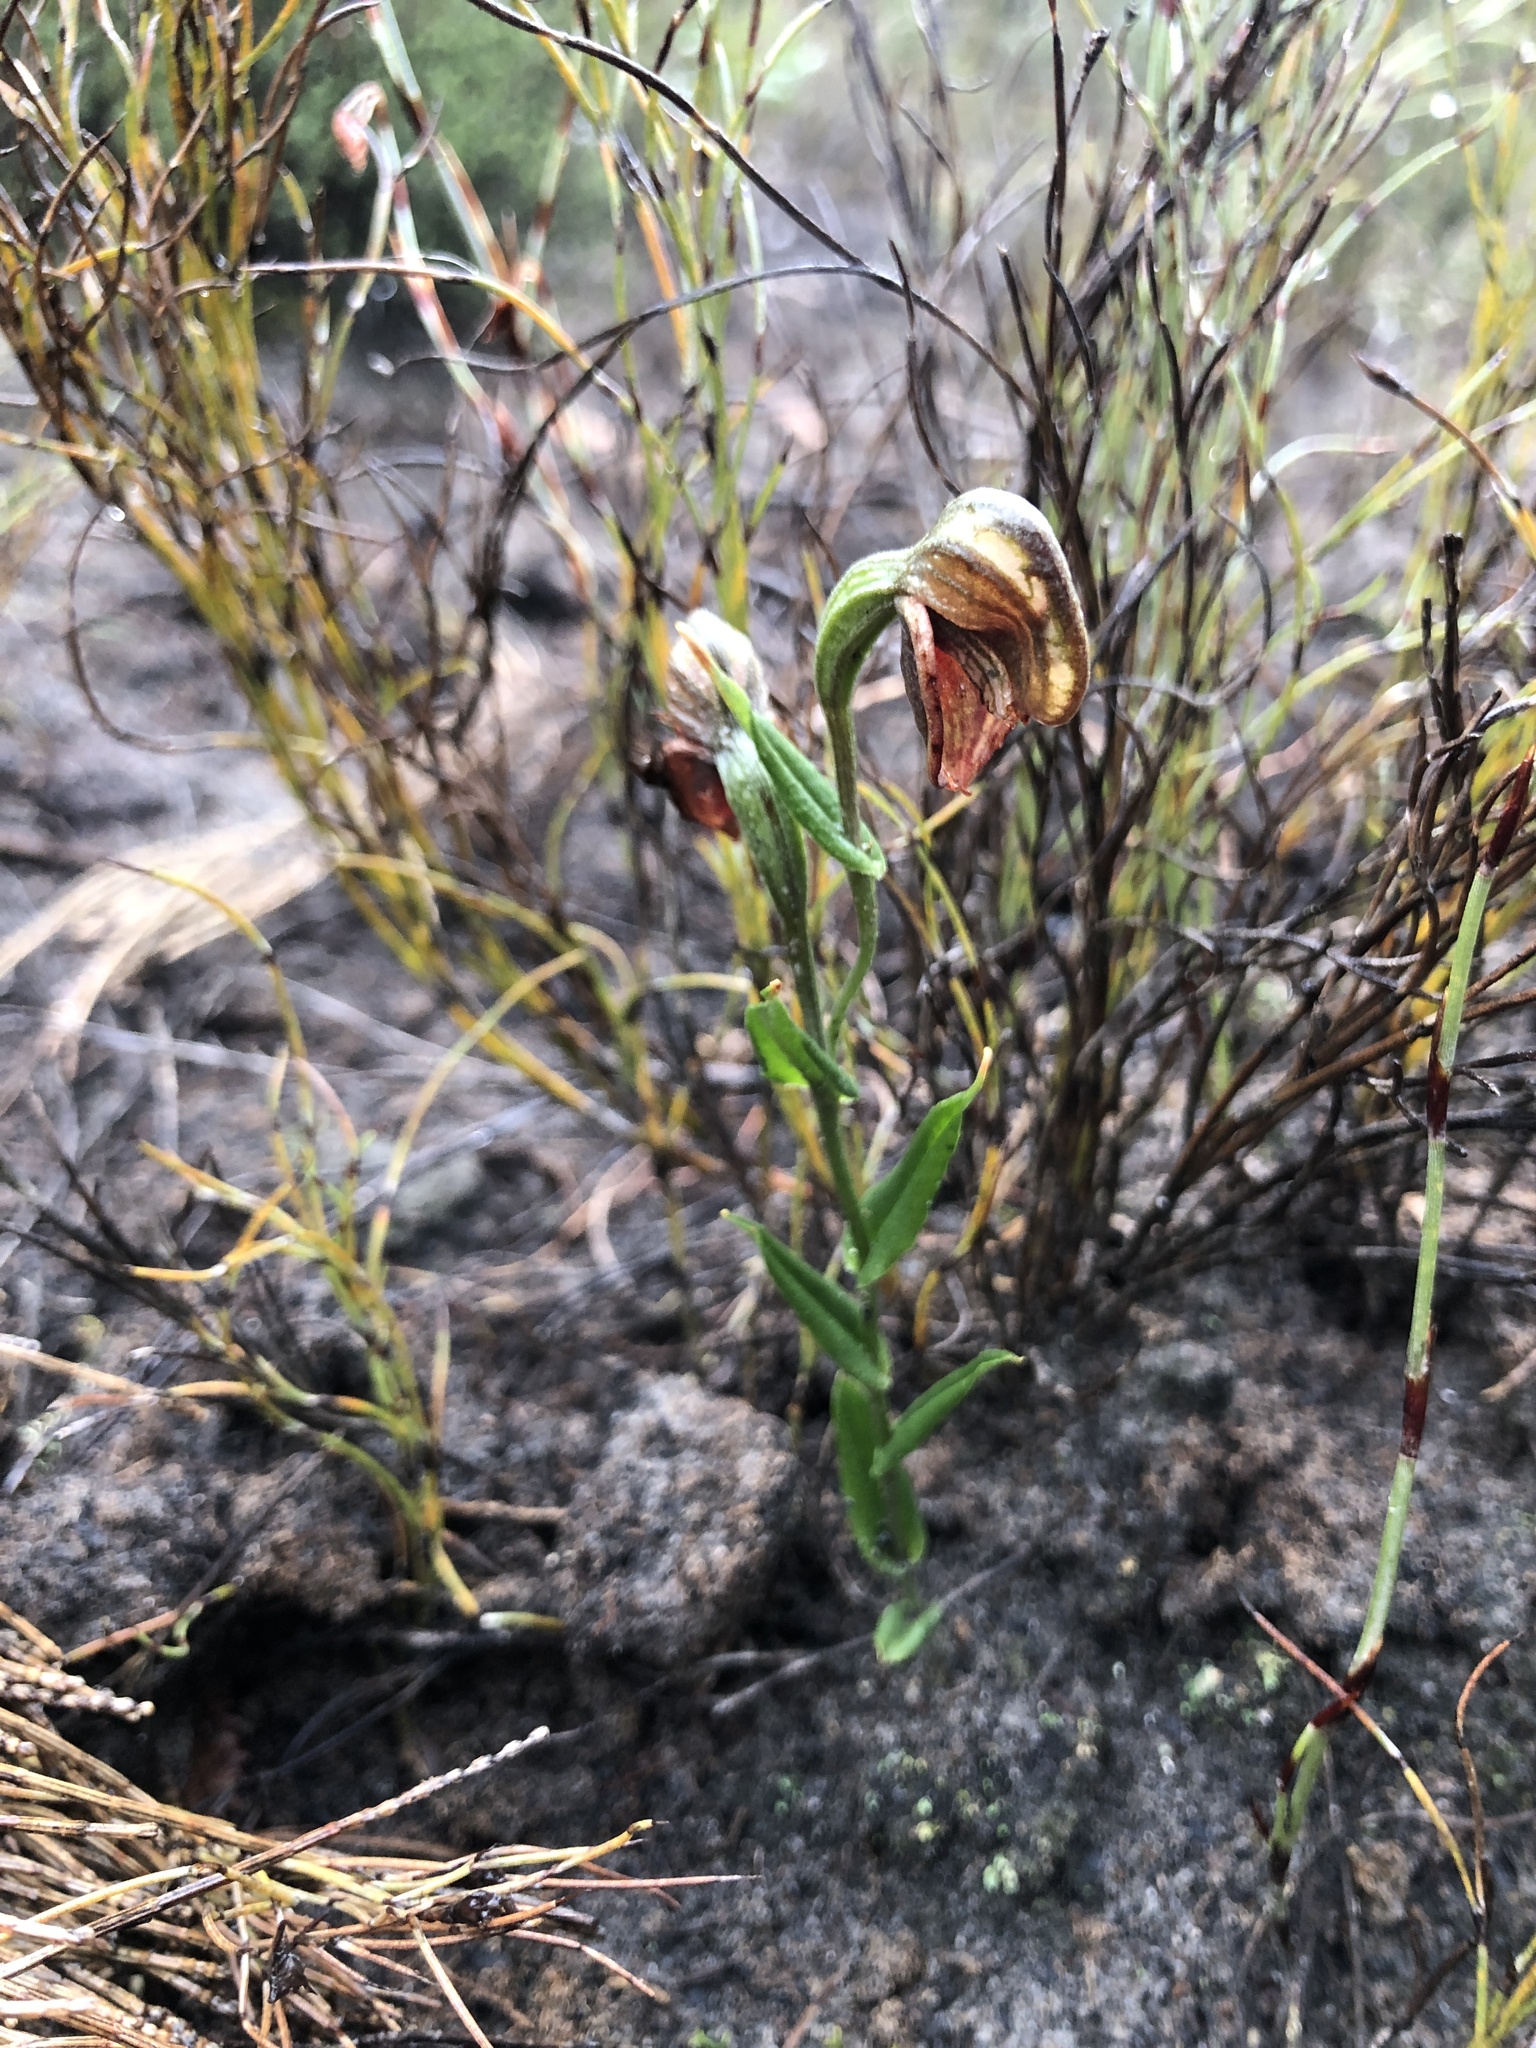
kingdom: Plantae
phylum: Tracheophyta
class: Liliopsida
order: Asparagales
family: Orchidaceae
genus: Pterostylis
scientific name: Pterostylis sanguinea
